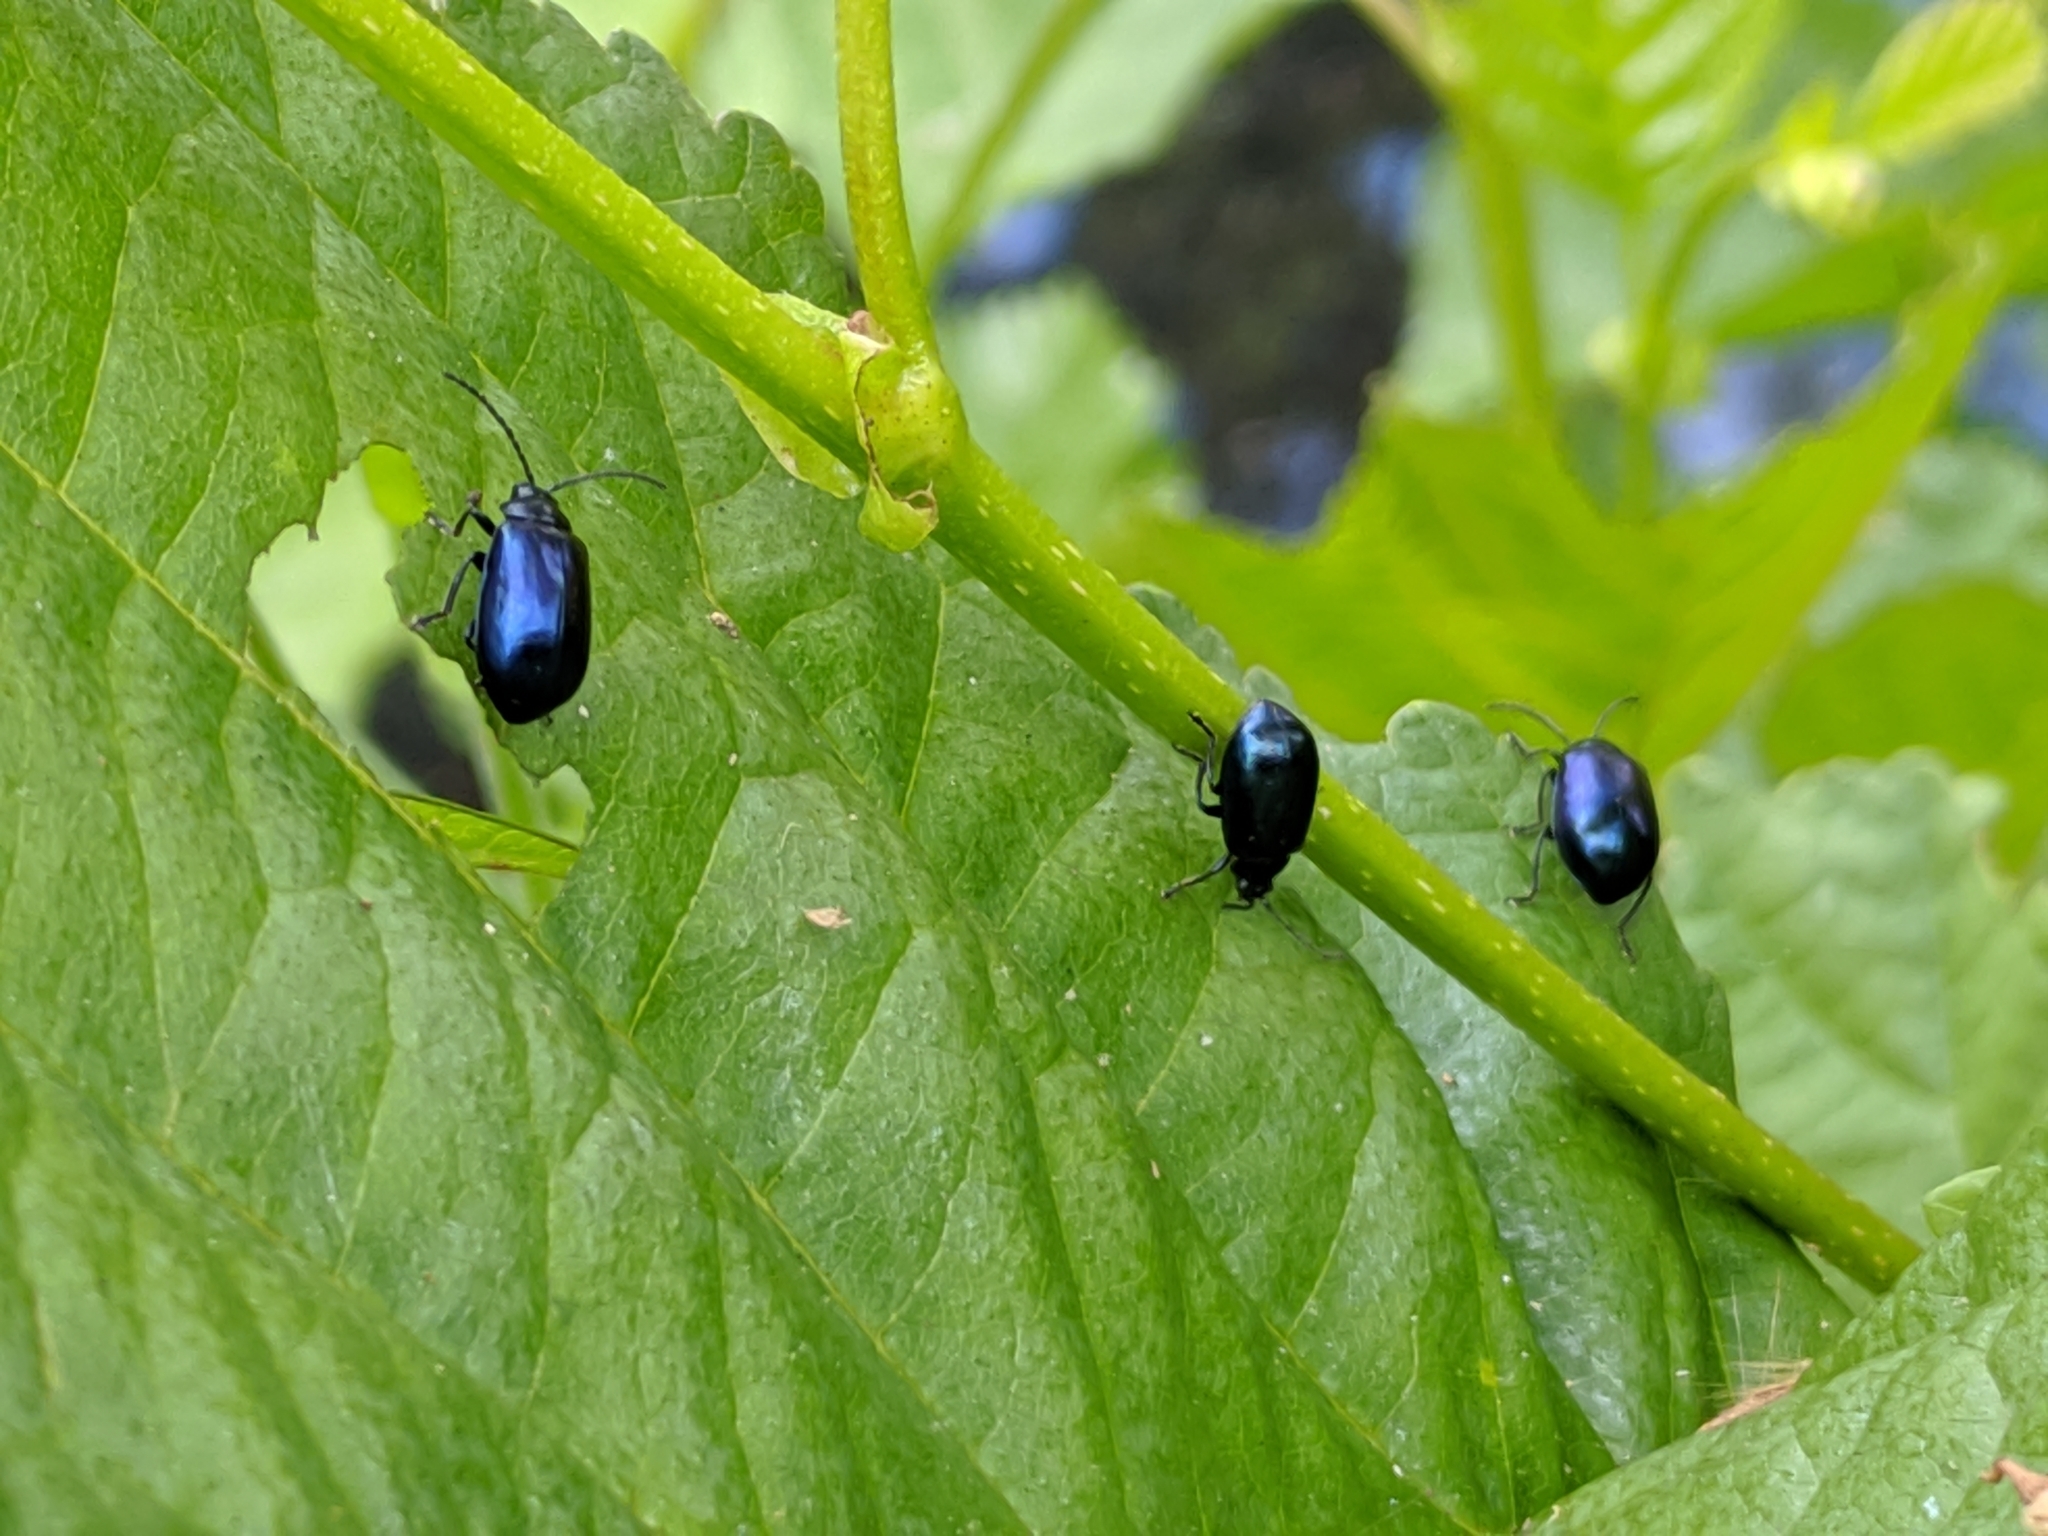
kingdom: Animalia
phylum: Arthropoda
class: Insecta
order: Coleoptera
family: Chrysomelidae
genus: Agelastica
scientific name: Agelastica alni
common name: Alder leaf beetle
